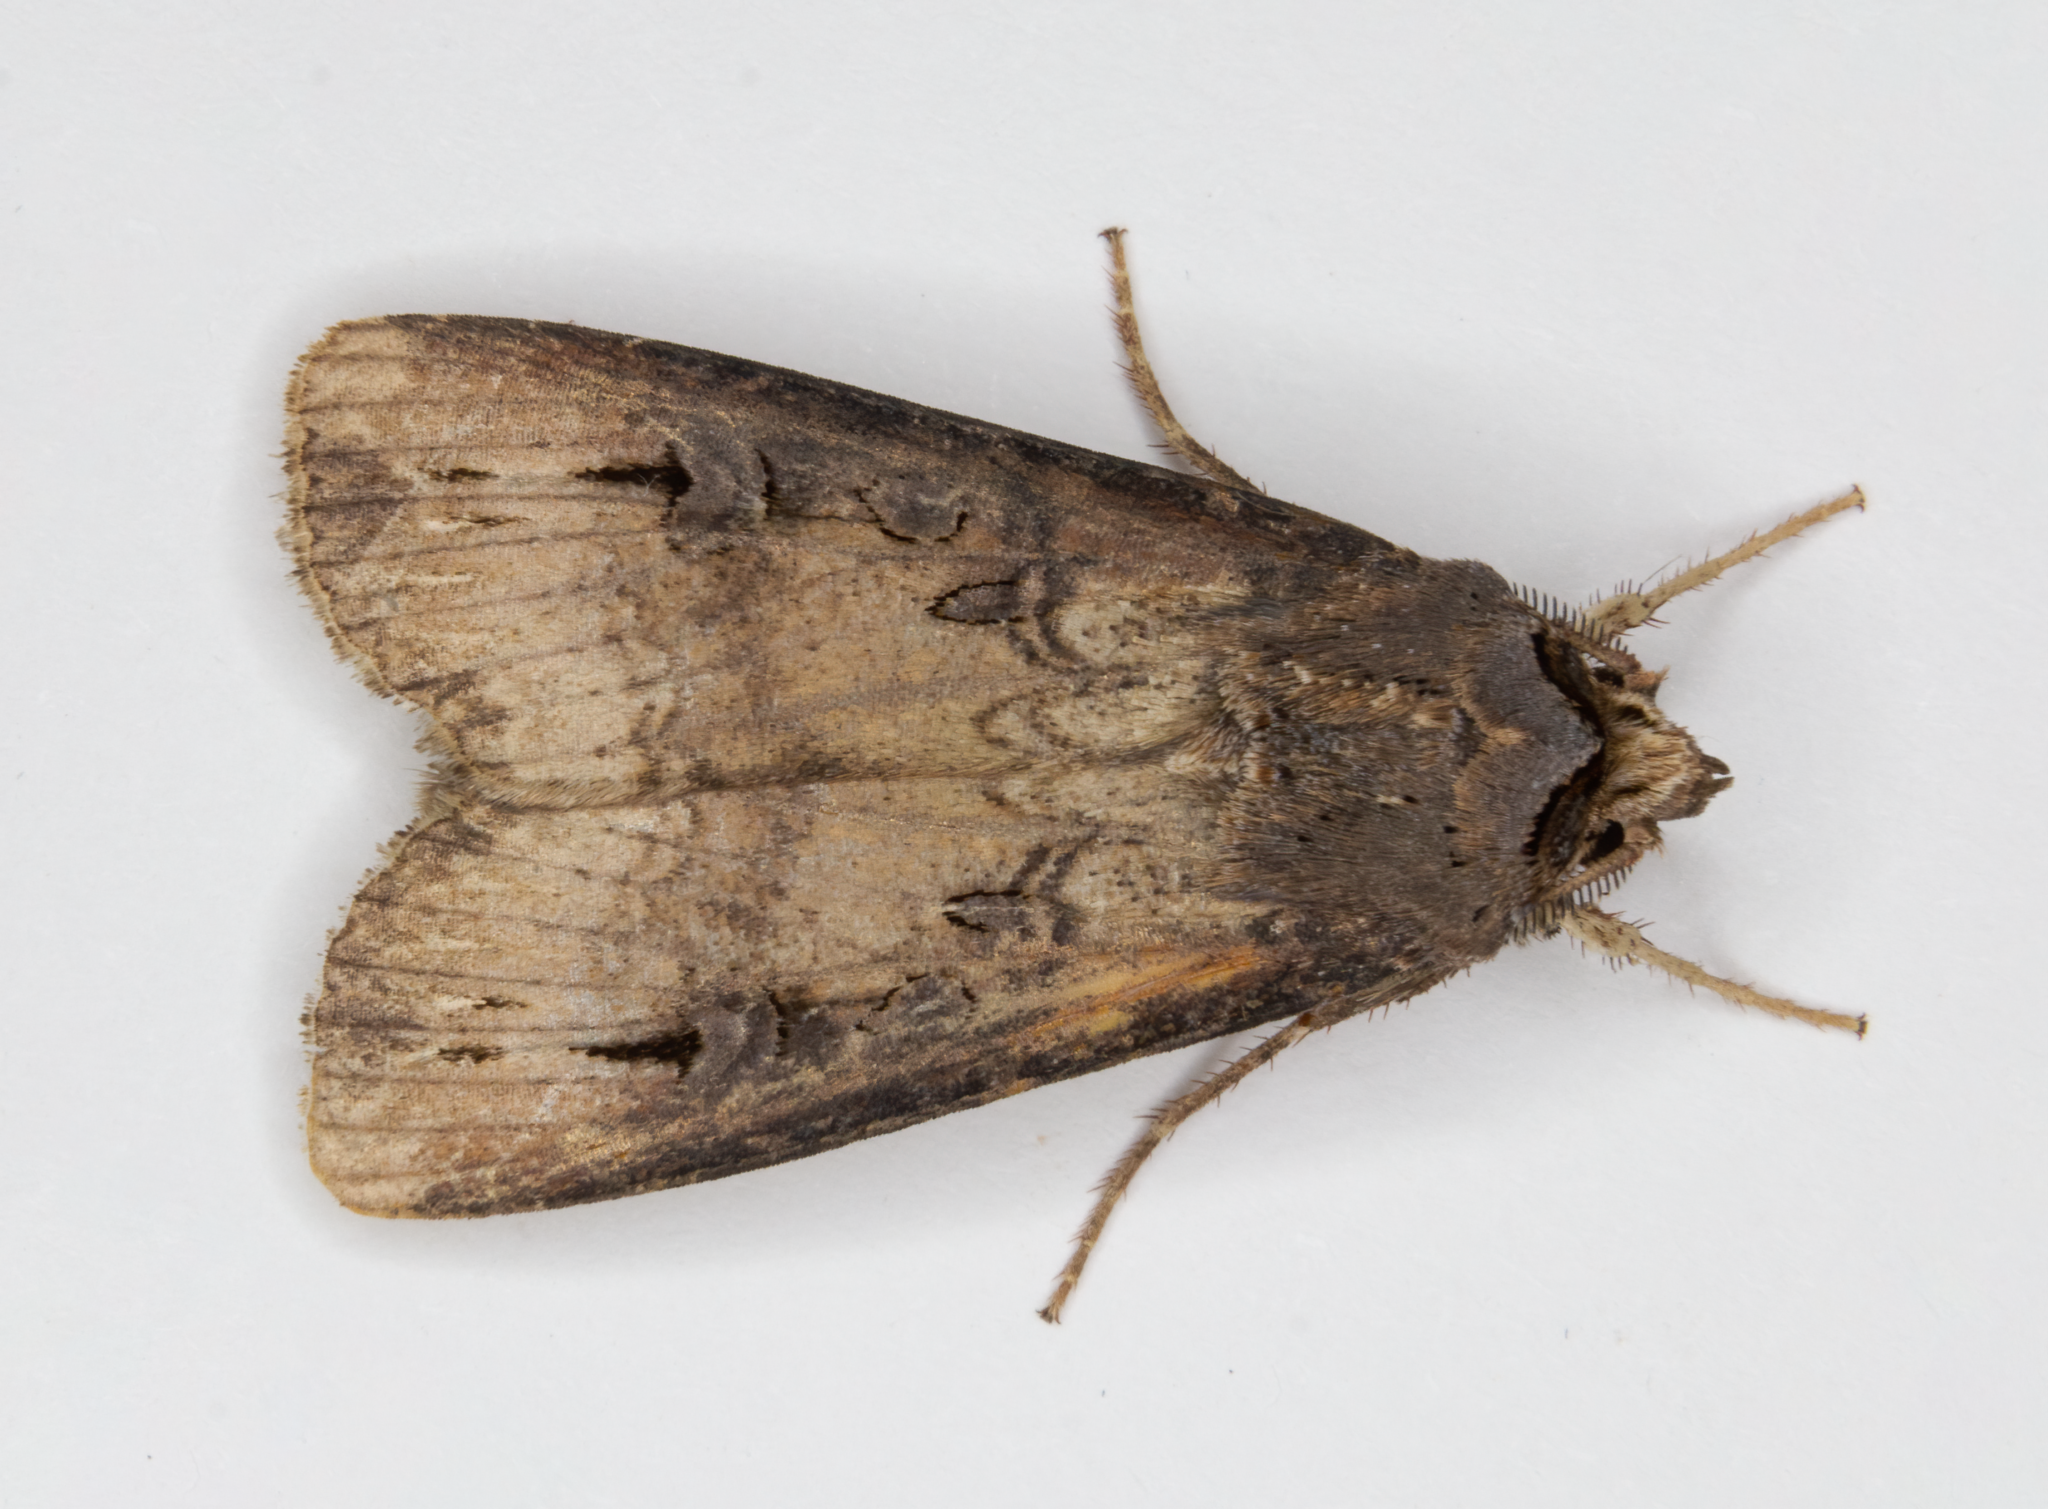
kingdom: Animalia
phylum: Arthropoda
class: Insecta
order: Lepidoptera
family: Noctuidae
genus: Agrotis
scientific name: Agrotis ipsilon
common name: Dark sword-grass
